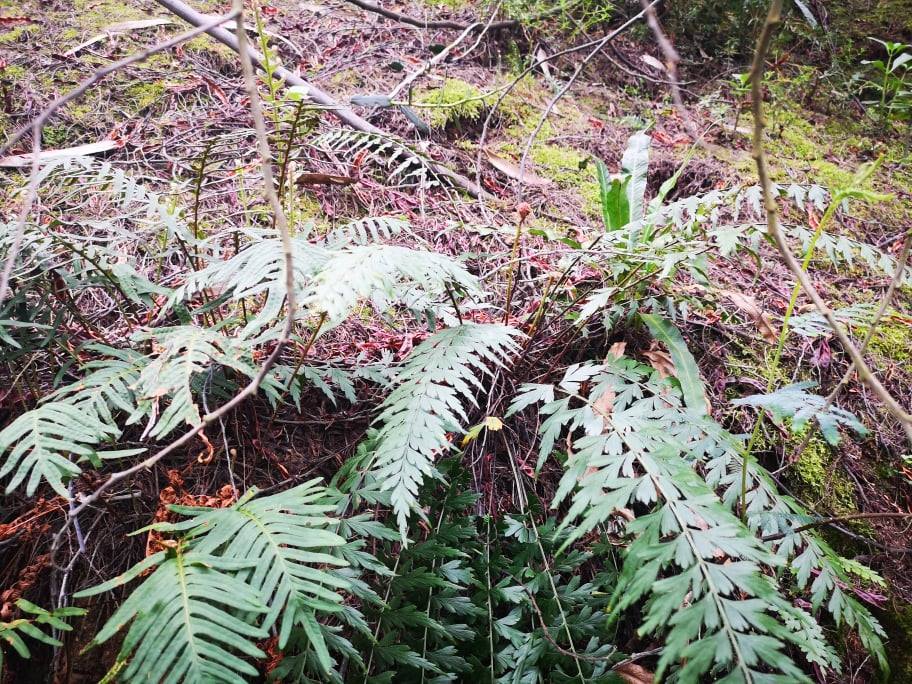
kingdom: Plantae
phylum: Tracheophyta
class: Polypodiopsida
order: Polypodiales
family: Aspleniaceae
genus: Asplenium
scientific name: Asplenium praemorsum
